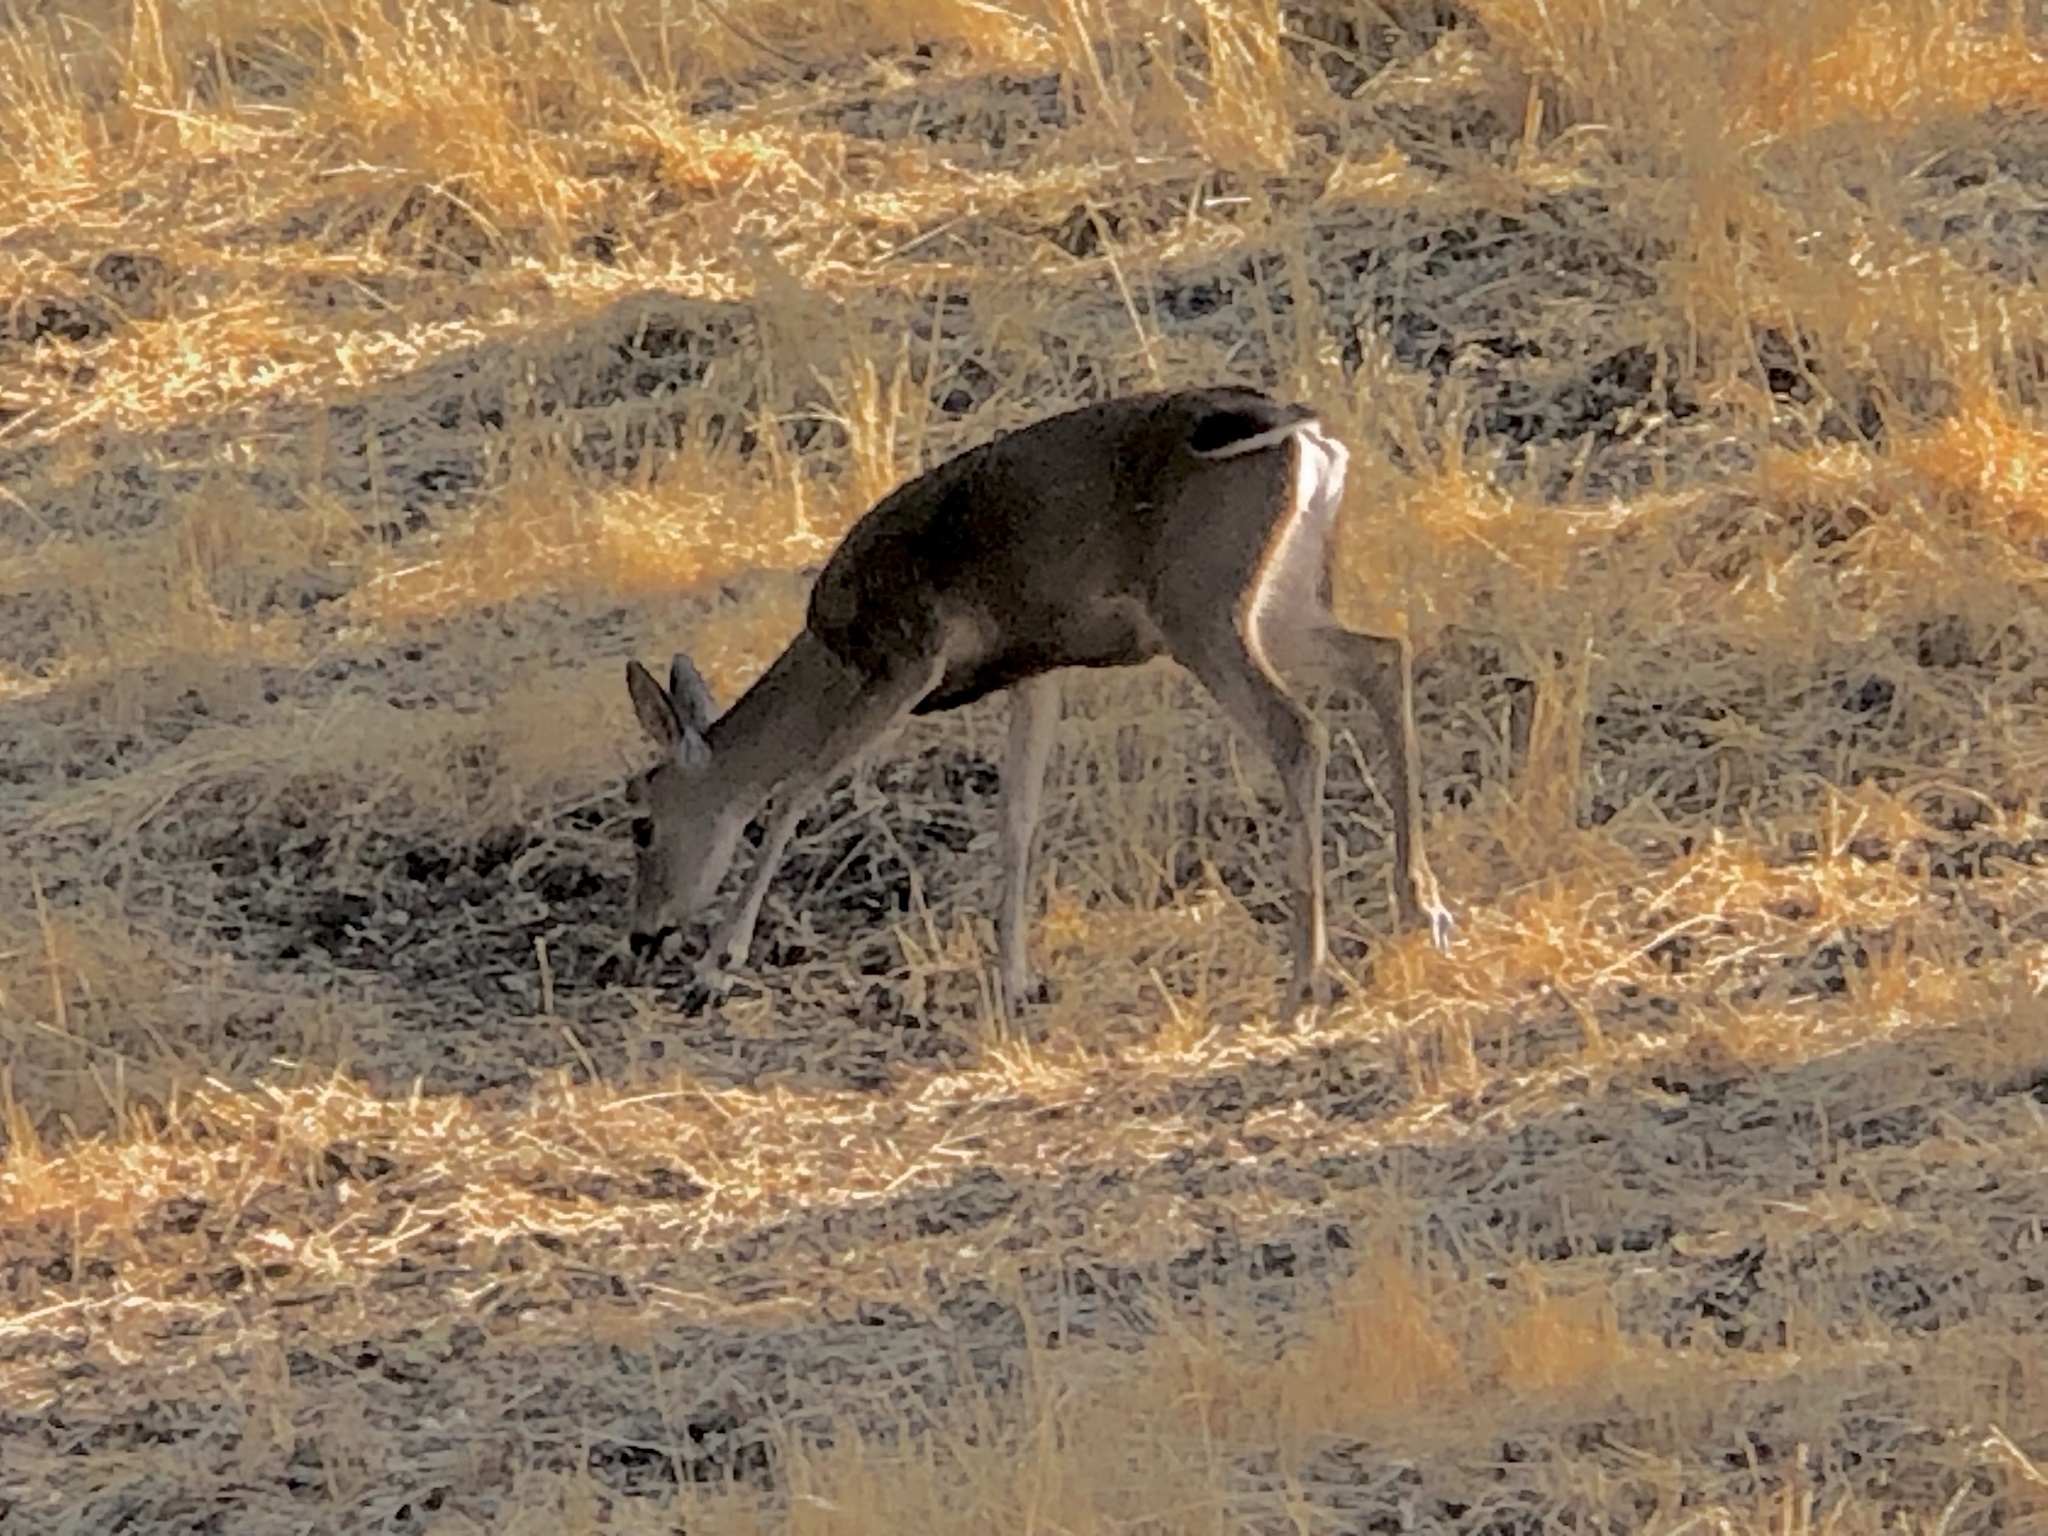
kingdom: Animalia
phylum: Chordata
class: Mammalia
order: Artiodactyla
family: Cervidae
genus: Odocoileus
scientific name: Odocoileus hemionus
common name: Mule deer
